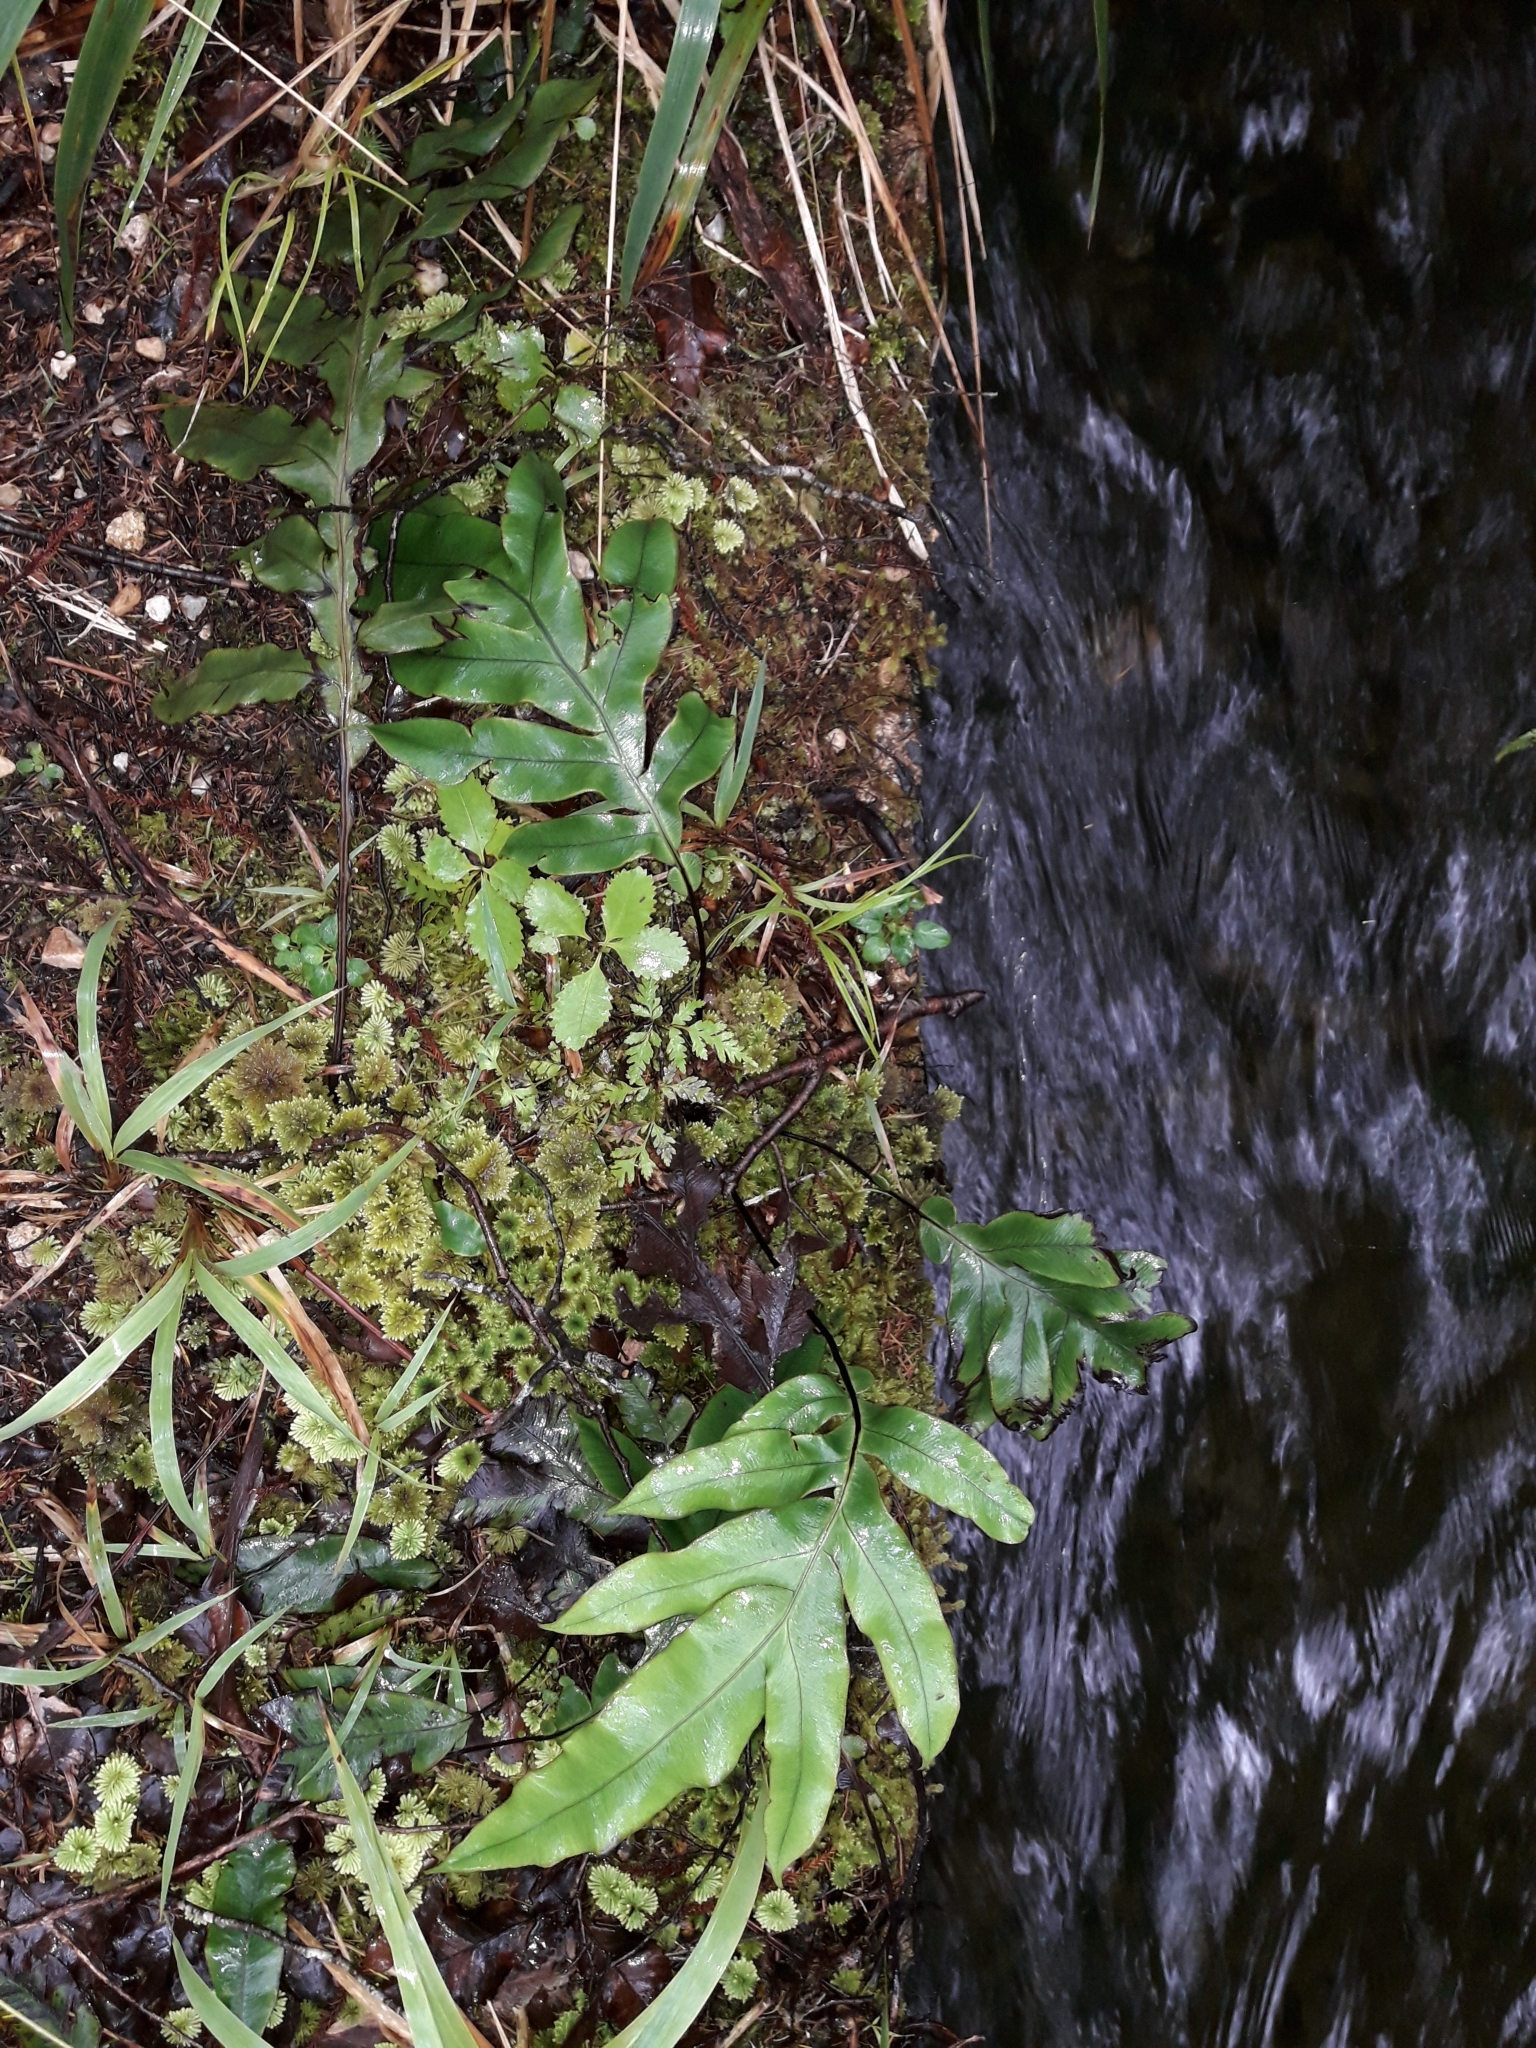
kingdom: Plantae
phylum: Tracheophyta
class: Polypodiopsida
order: Polypodiales
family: Blechnaceae
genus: Austroblechnum
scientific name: Austroblechnum colensoi
